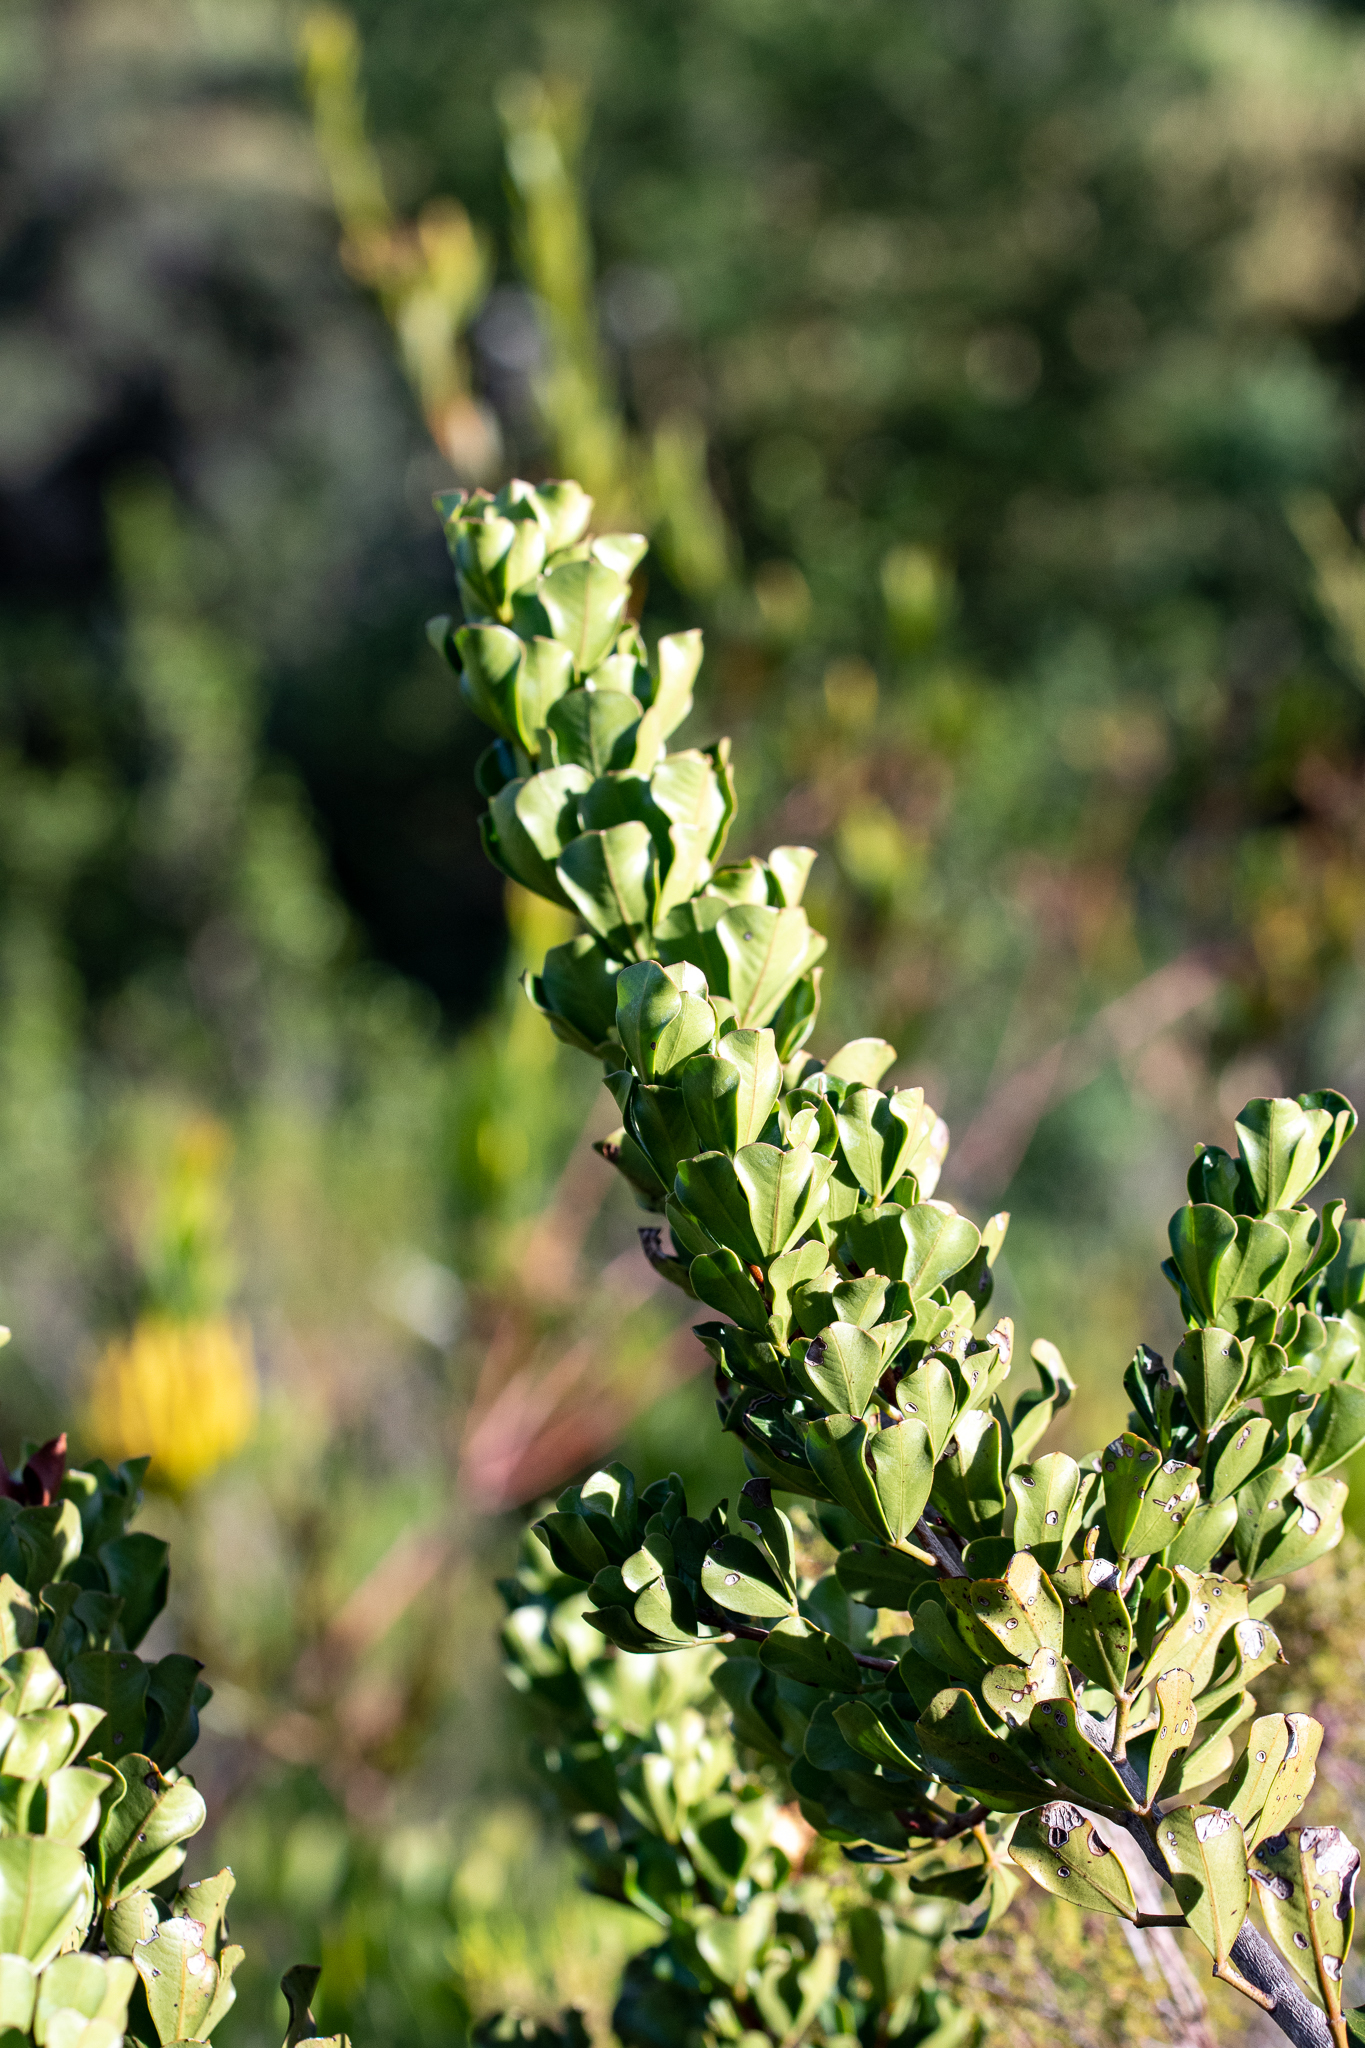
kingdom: Plantae
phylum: Tracheophyta
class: Magnoliopsida
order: Sapindales
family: Anacardiaceae
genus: Searsia
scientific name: Searsia scytophylla
